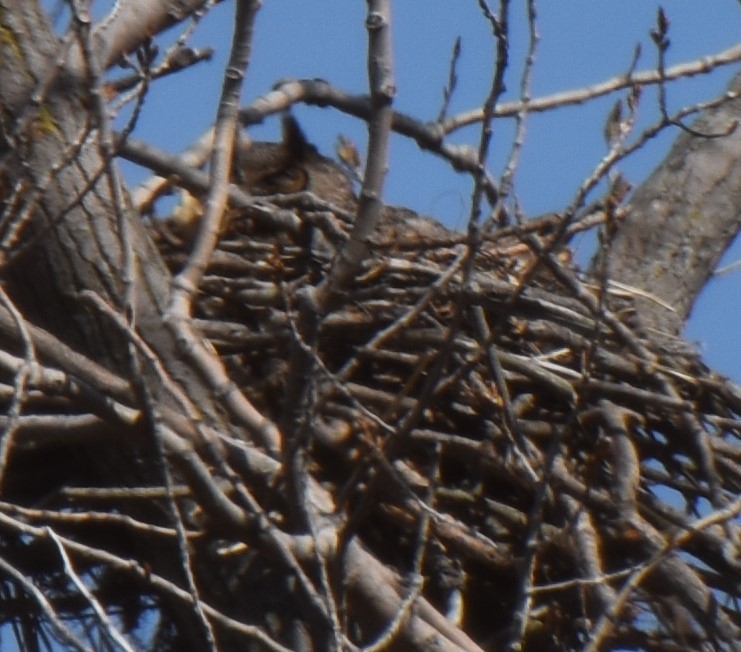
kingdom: Animalia
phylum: Chordata
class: Aves
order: Strigiformes
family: Strigidae
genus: Bubo
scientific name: Bubo virginianus
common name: Great horned owl
